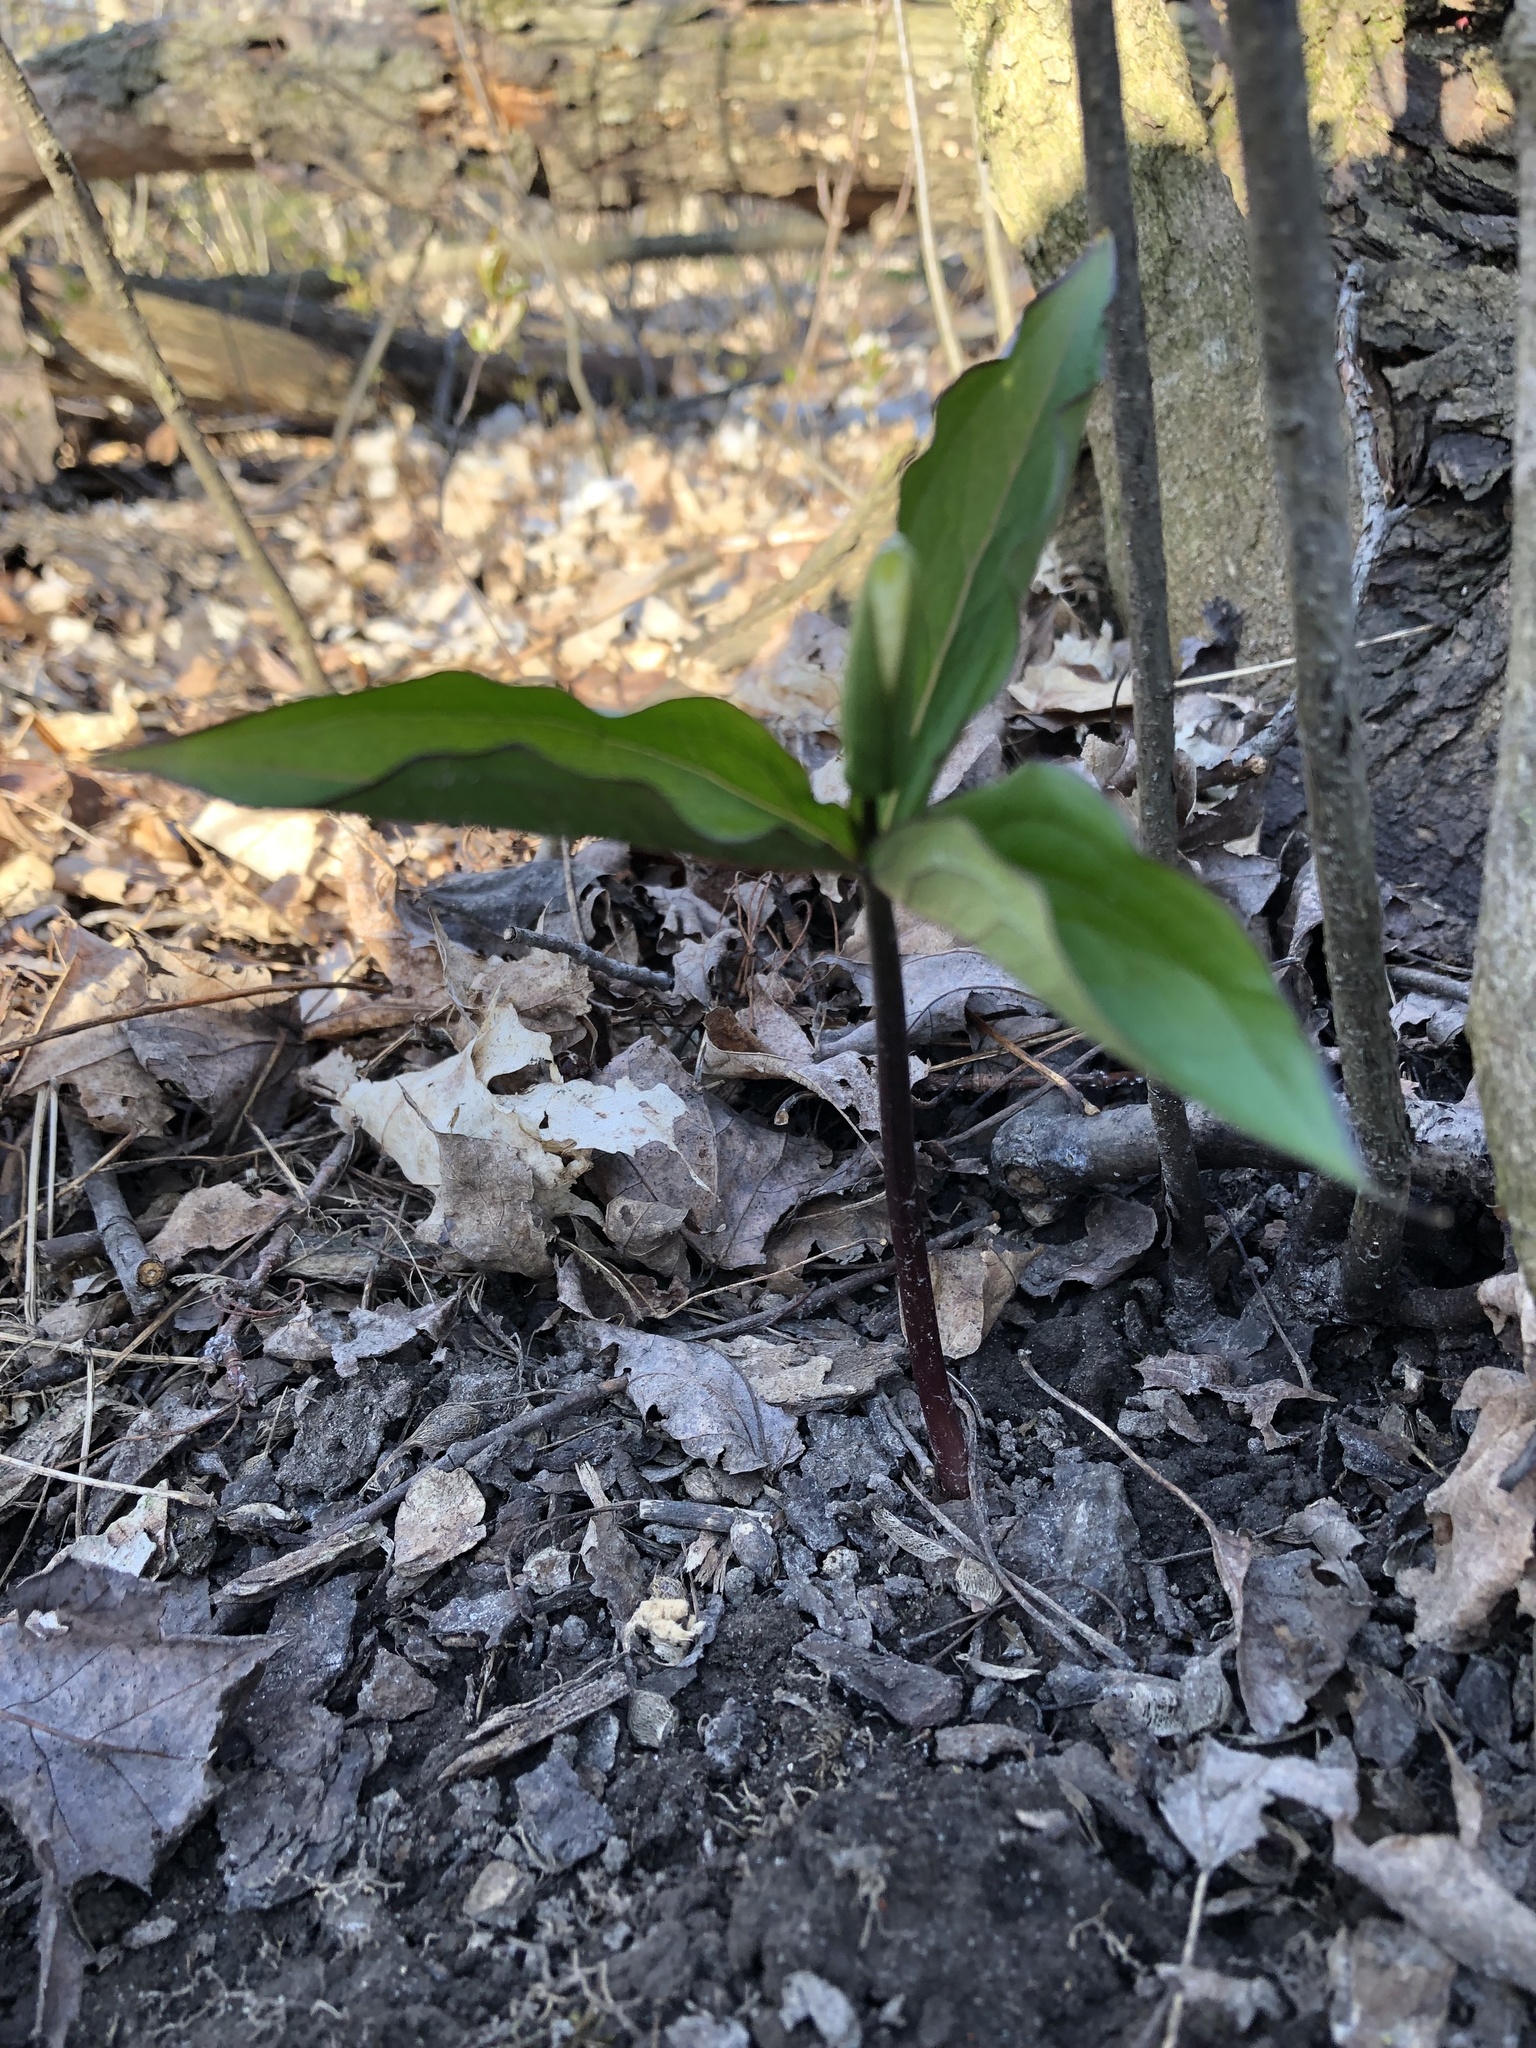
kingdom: Plantae
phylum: Tracheophyta
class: Liliopsida
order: Liliales
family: Melanthiaceae
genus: Trillium
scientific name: Trillium grandiflorum
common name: Great white trillium
